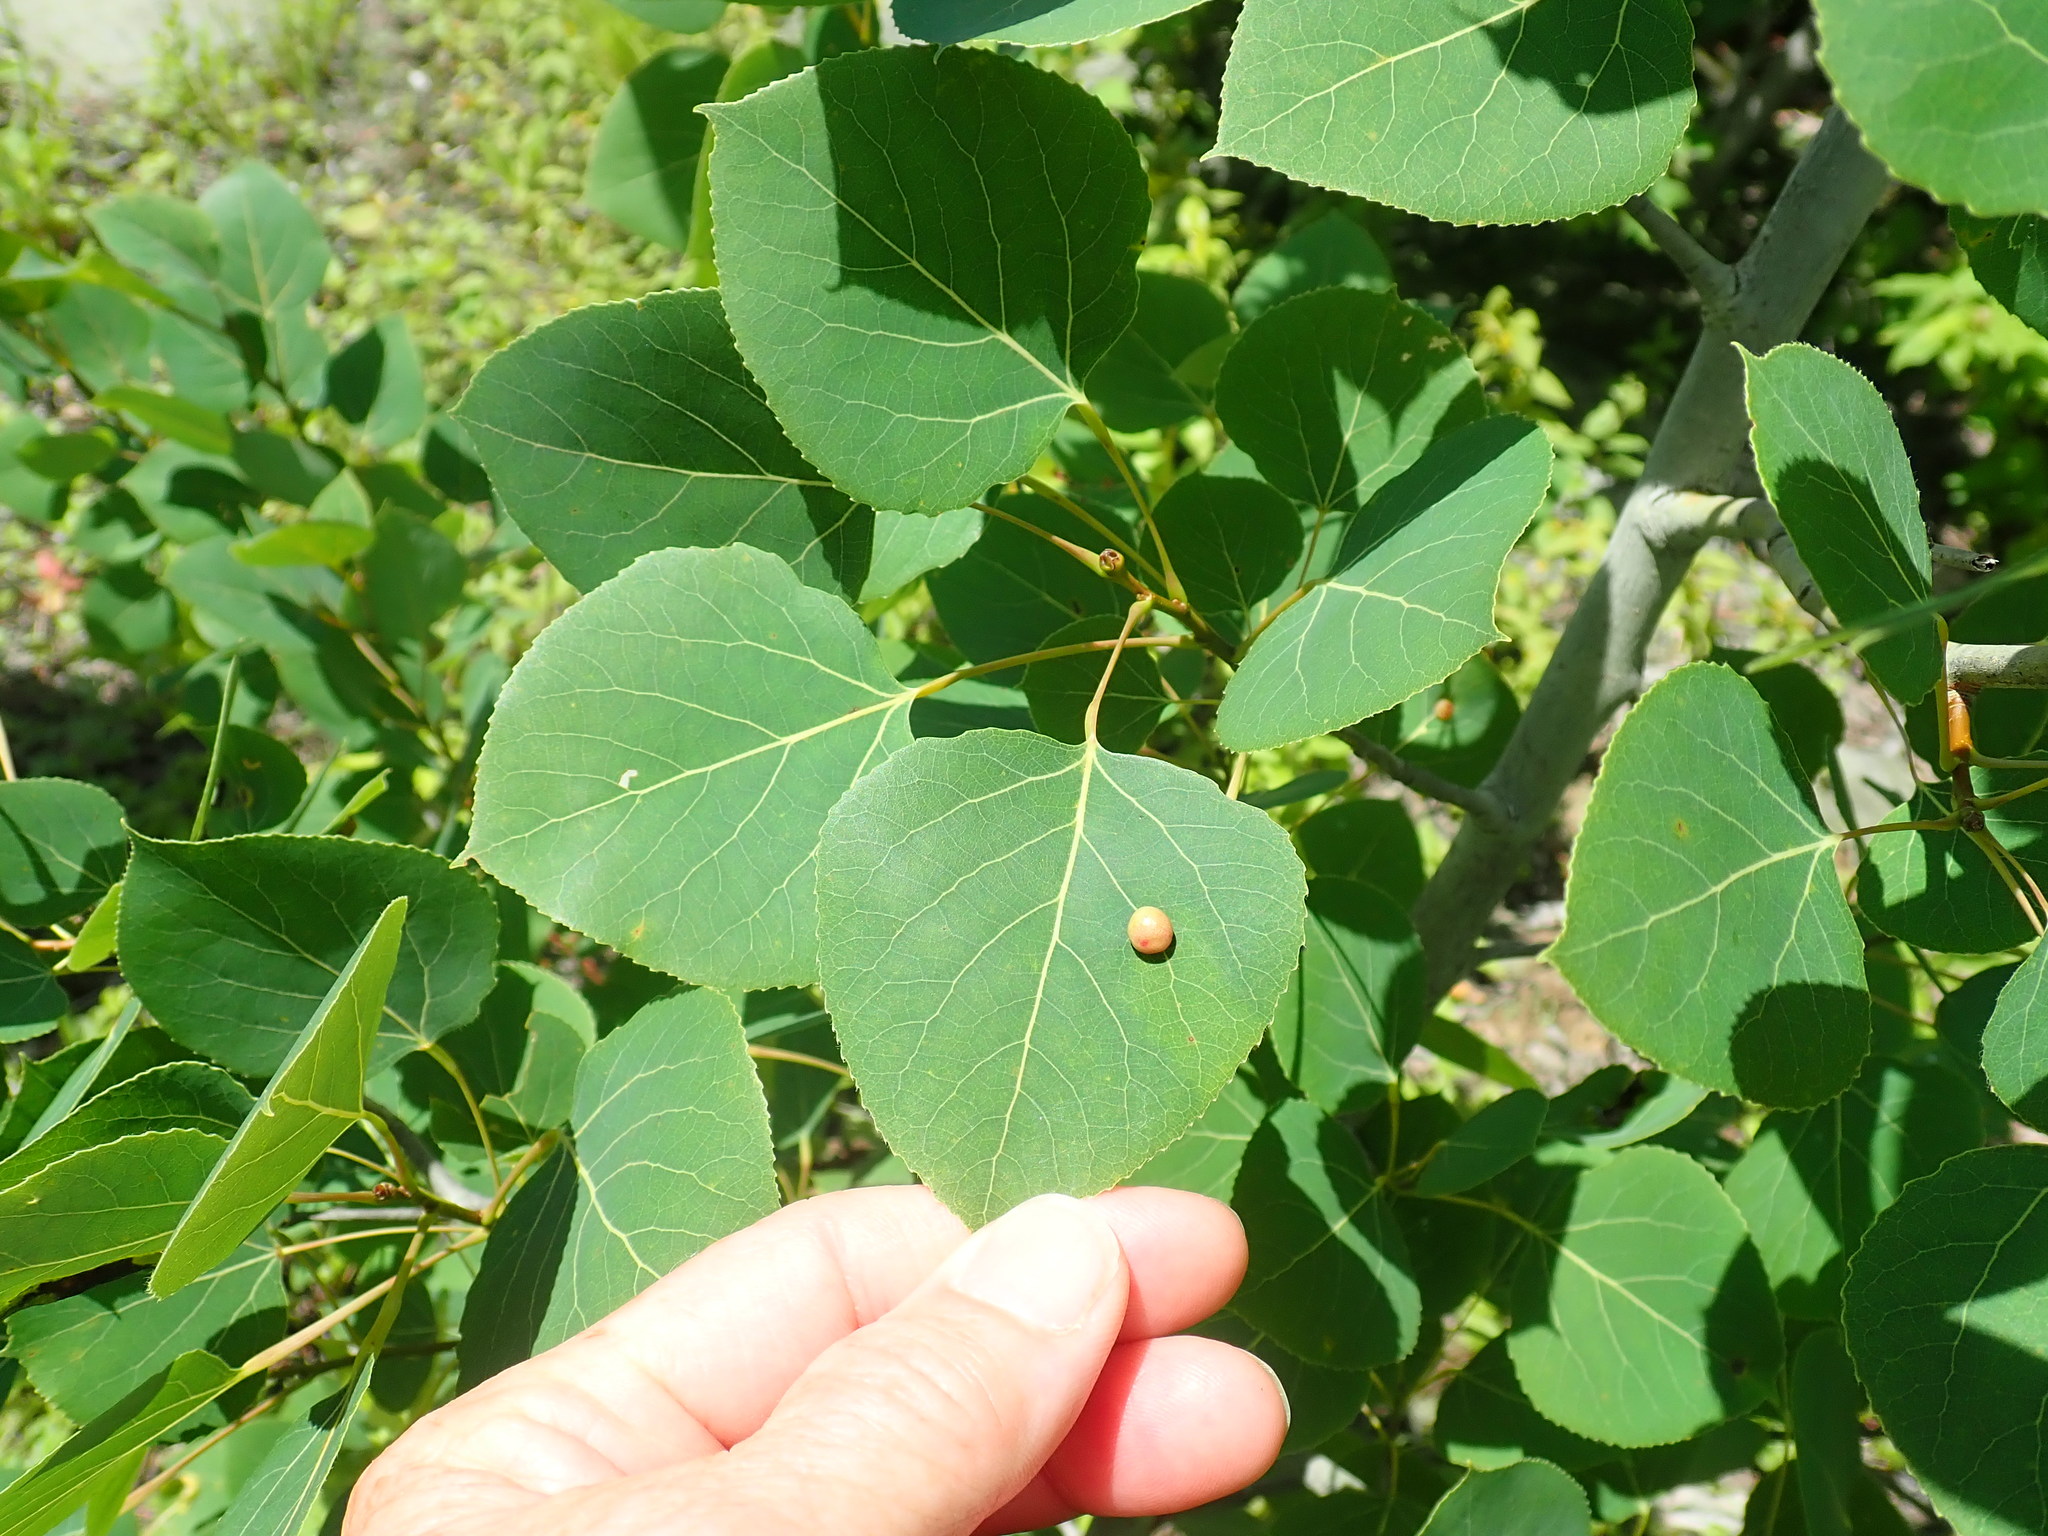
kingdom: Plantae
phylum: Tracheophyta
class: Magnoliopsida
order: Malpighiales
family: Salicaceae
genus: Populus
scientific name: Populus tremuloides
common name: Quaking aspen
